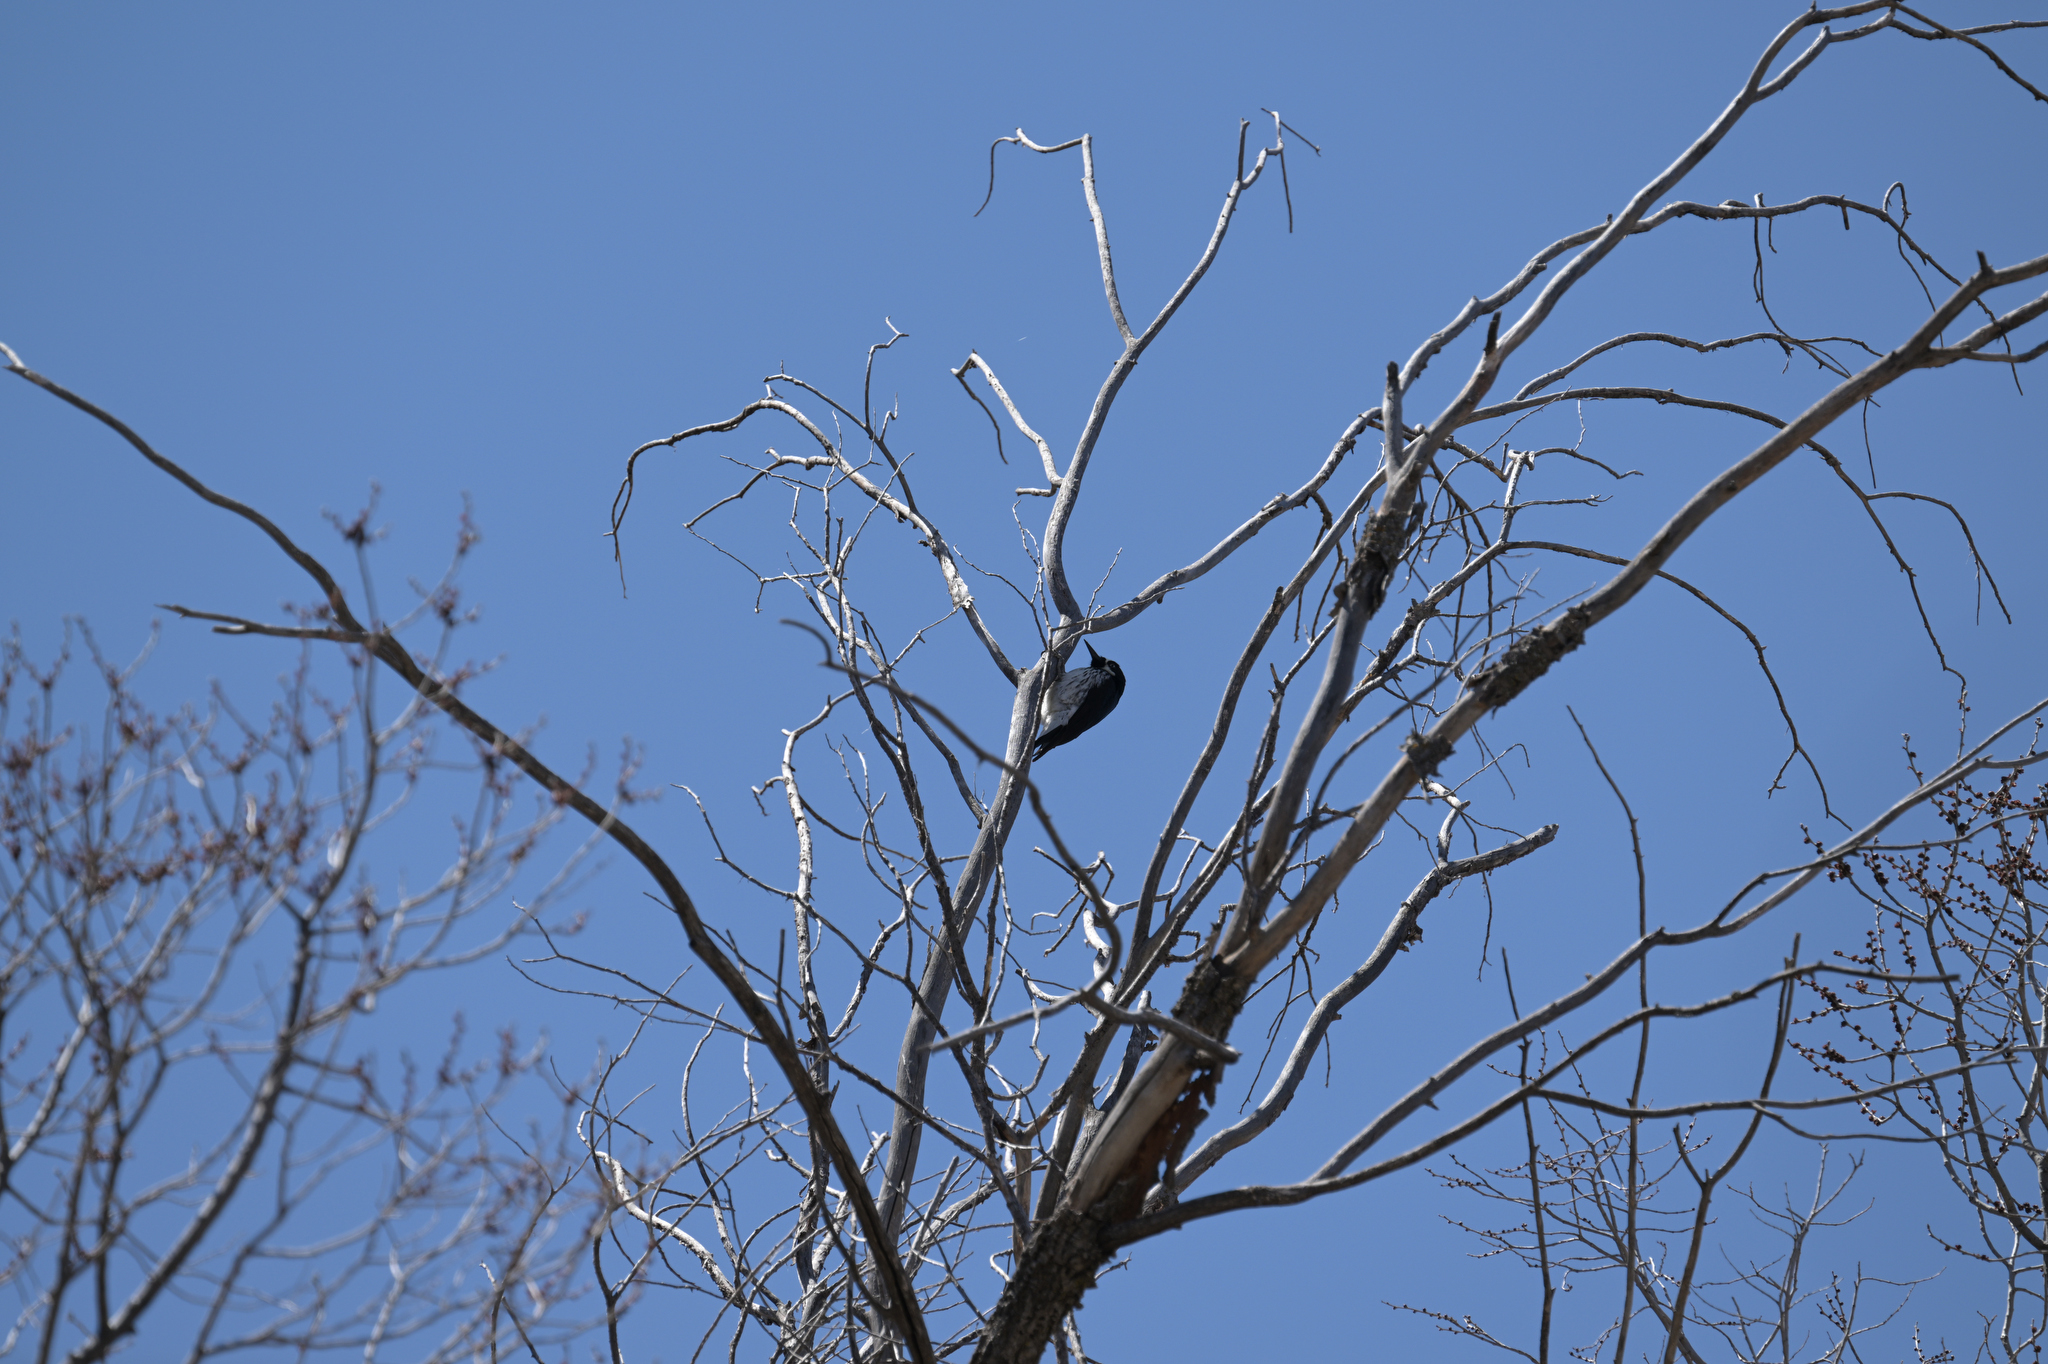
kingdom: Animalia
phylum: Chordata
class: Aves
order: Piciformes
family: Picidae
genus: Melanerpes
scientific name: Melanerpes formicivorus
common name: Acorn woodpecker
